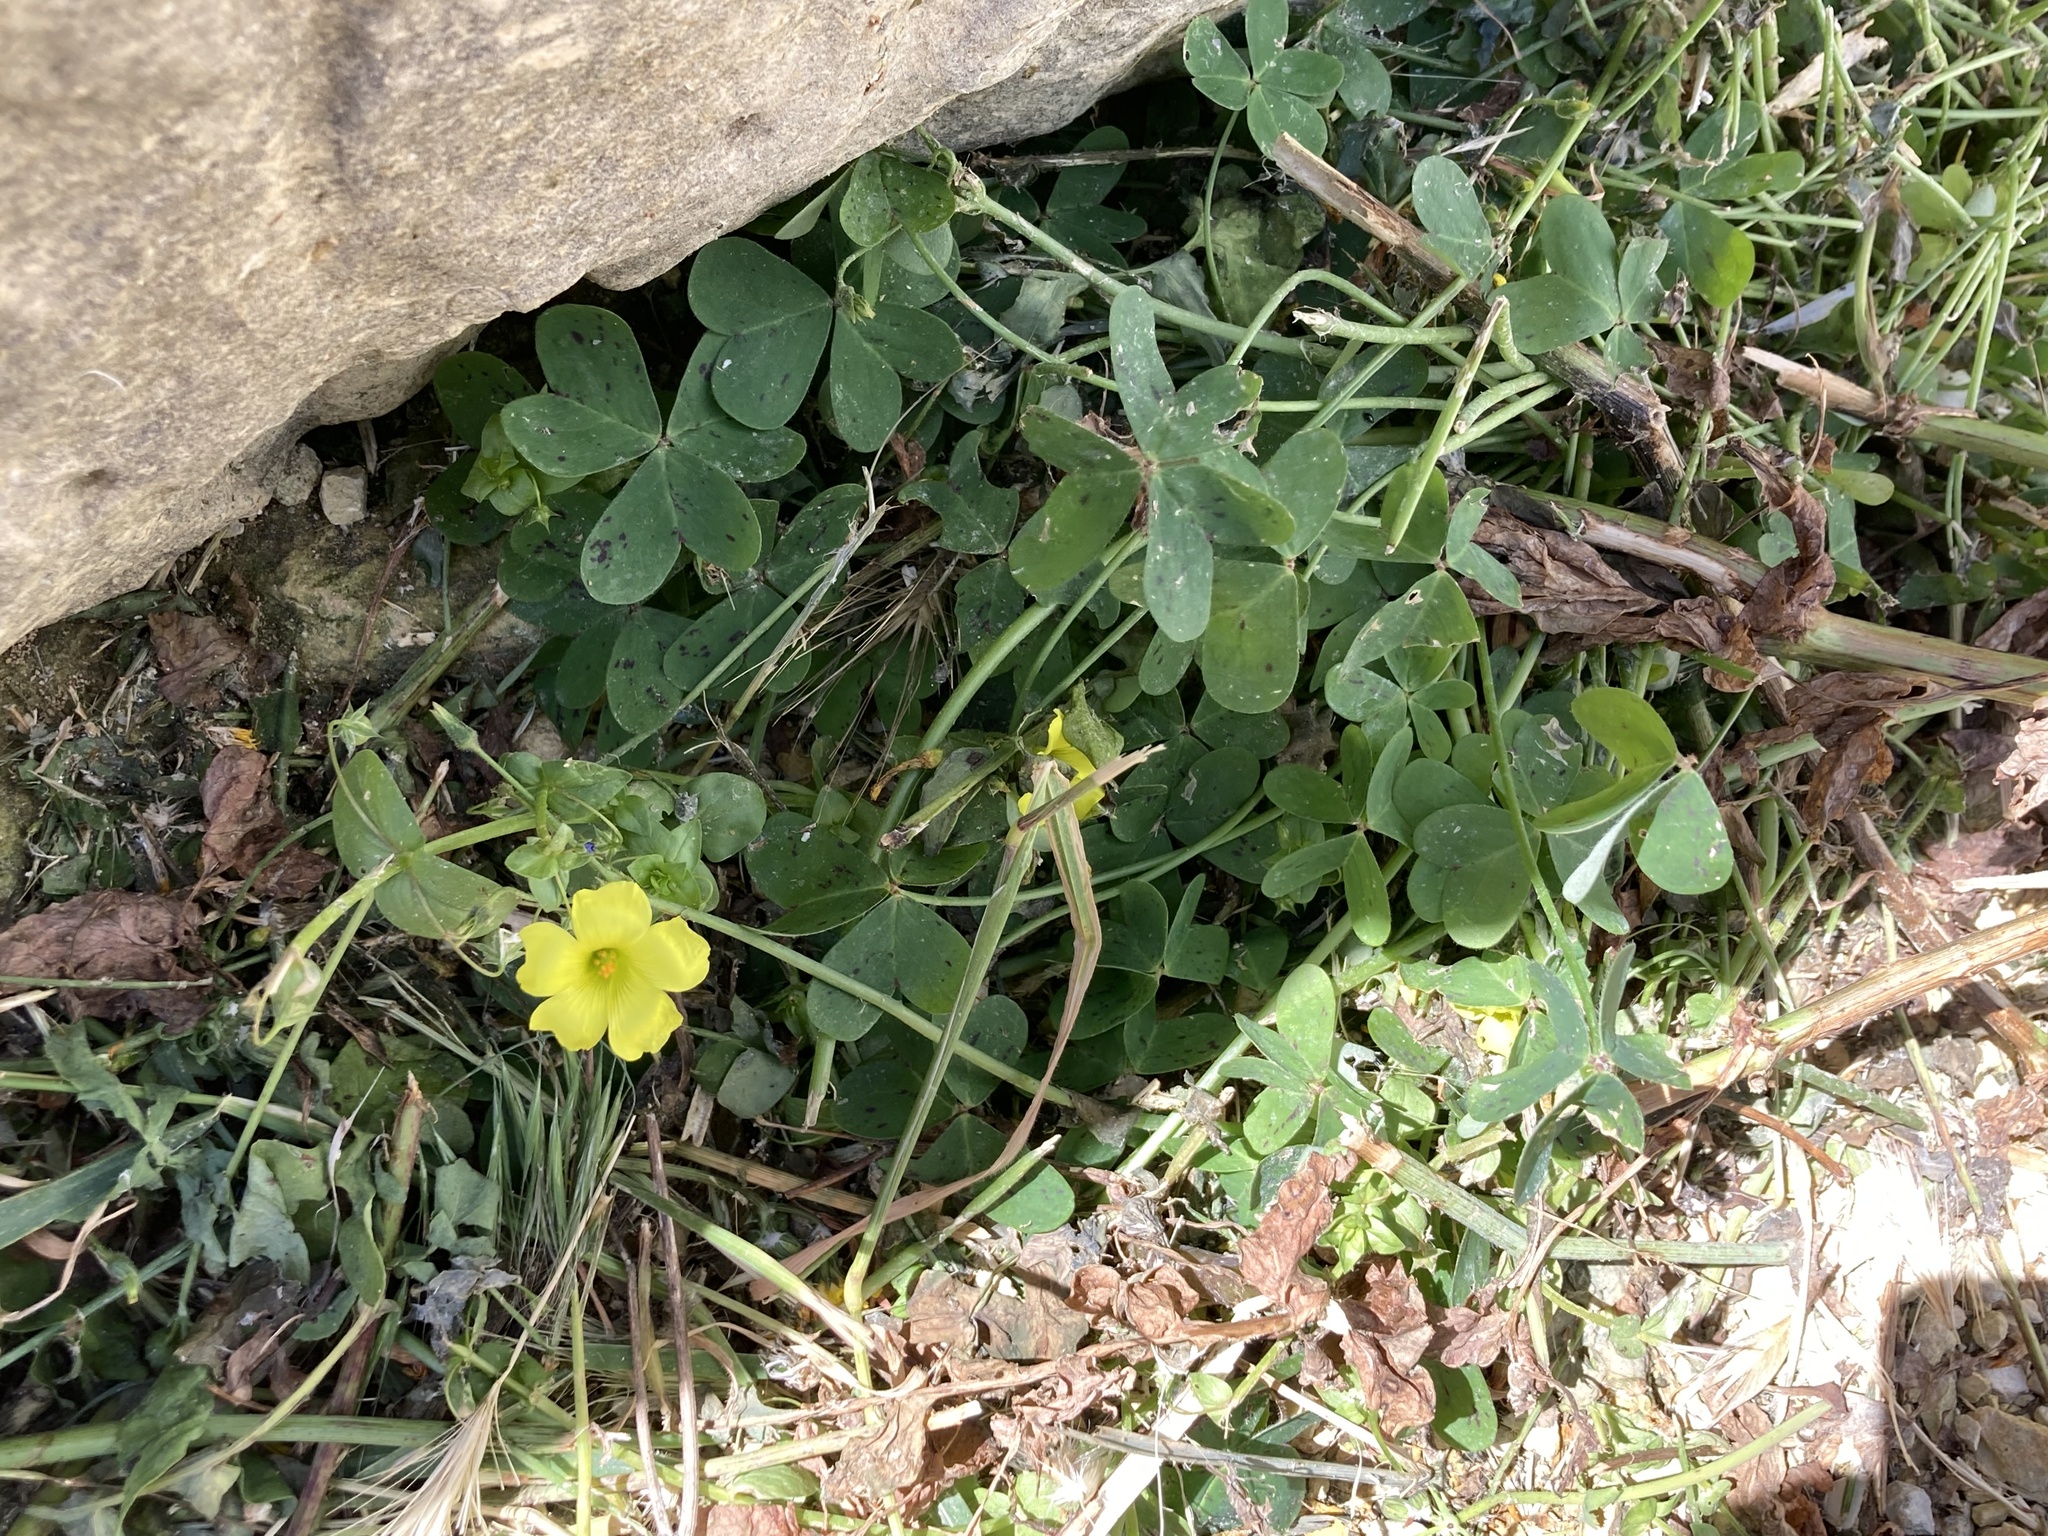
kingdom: Plantae
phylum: Tracheophyta
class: Magnoliopsida
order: Oxalidales
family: Oxalidaceae
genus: Oxalis
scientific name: Oxalis pes-caprae
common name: Bermuda-buttercup
